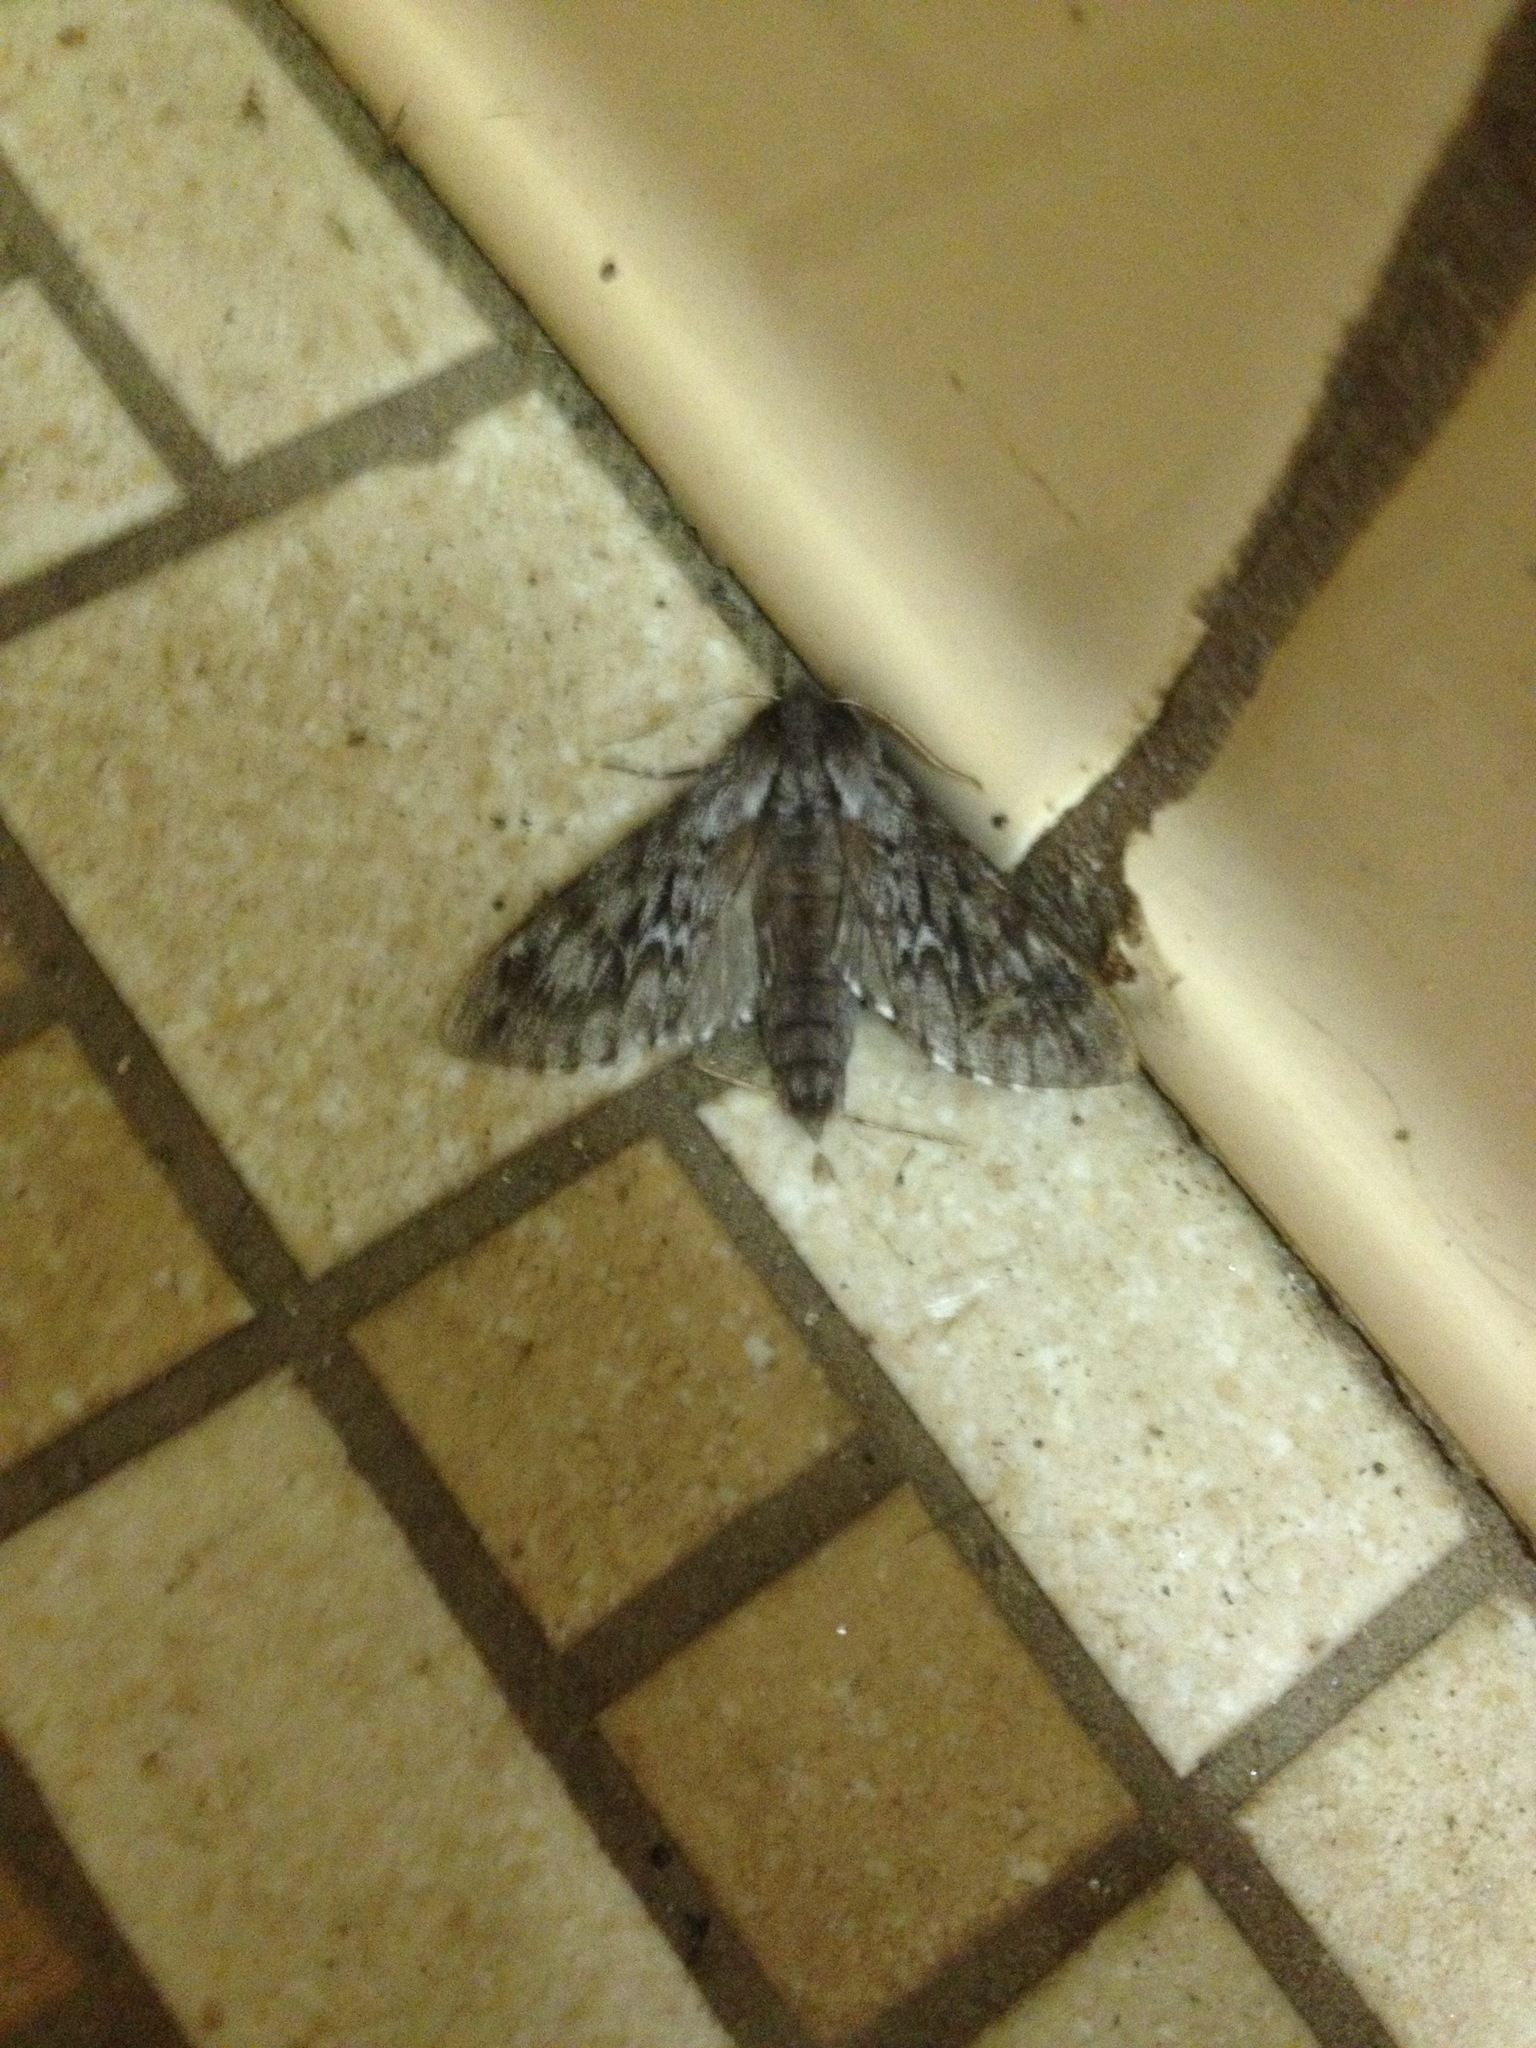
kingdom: Animalia
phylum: Arthropoda
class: Insecta
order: Lepidoptera
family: Sphingidae
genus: Lapara
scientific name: Lapara bombycoides
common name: Northern pine sphinx
